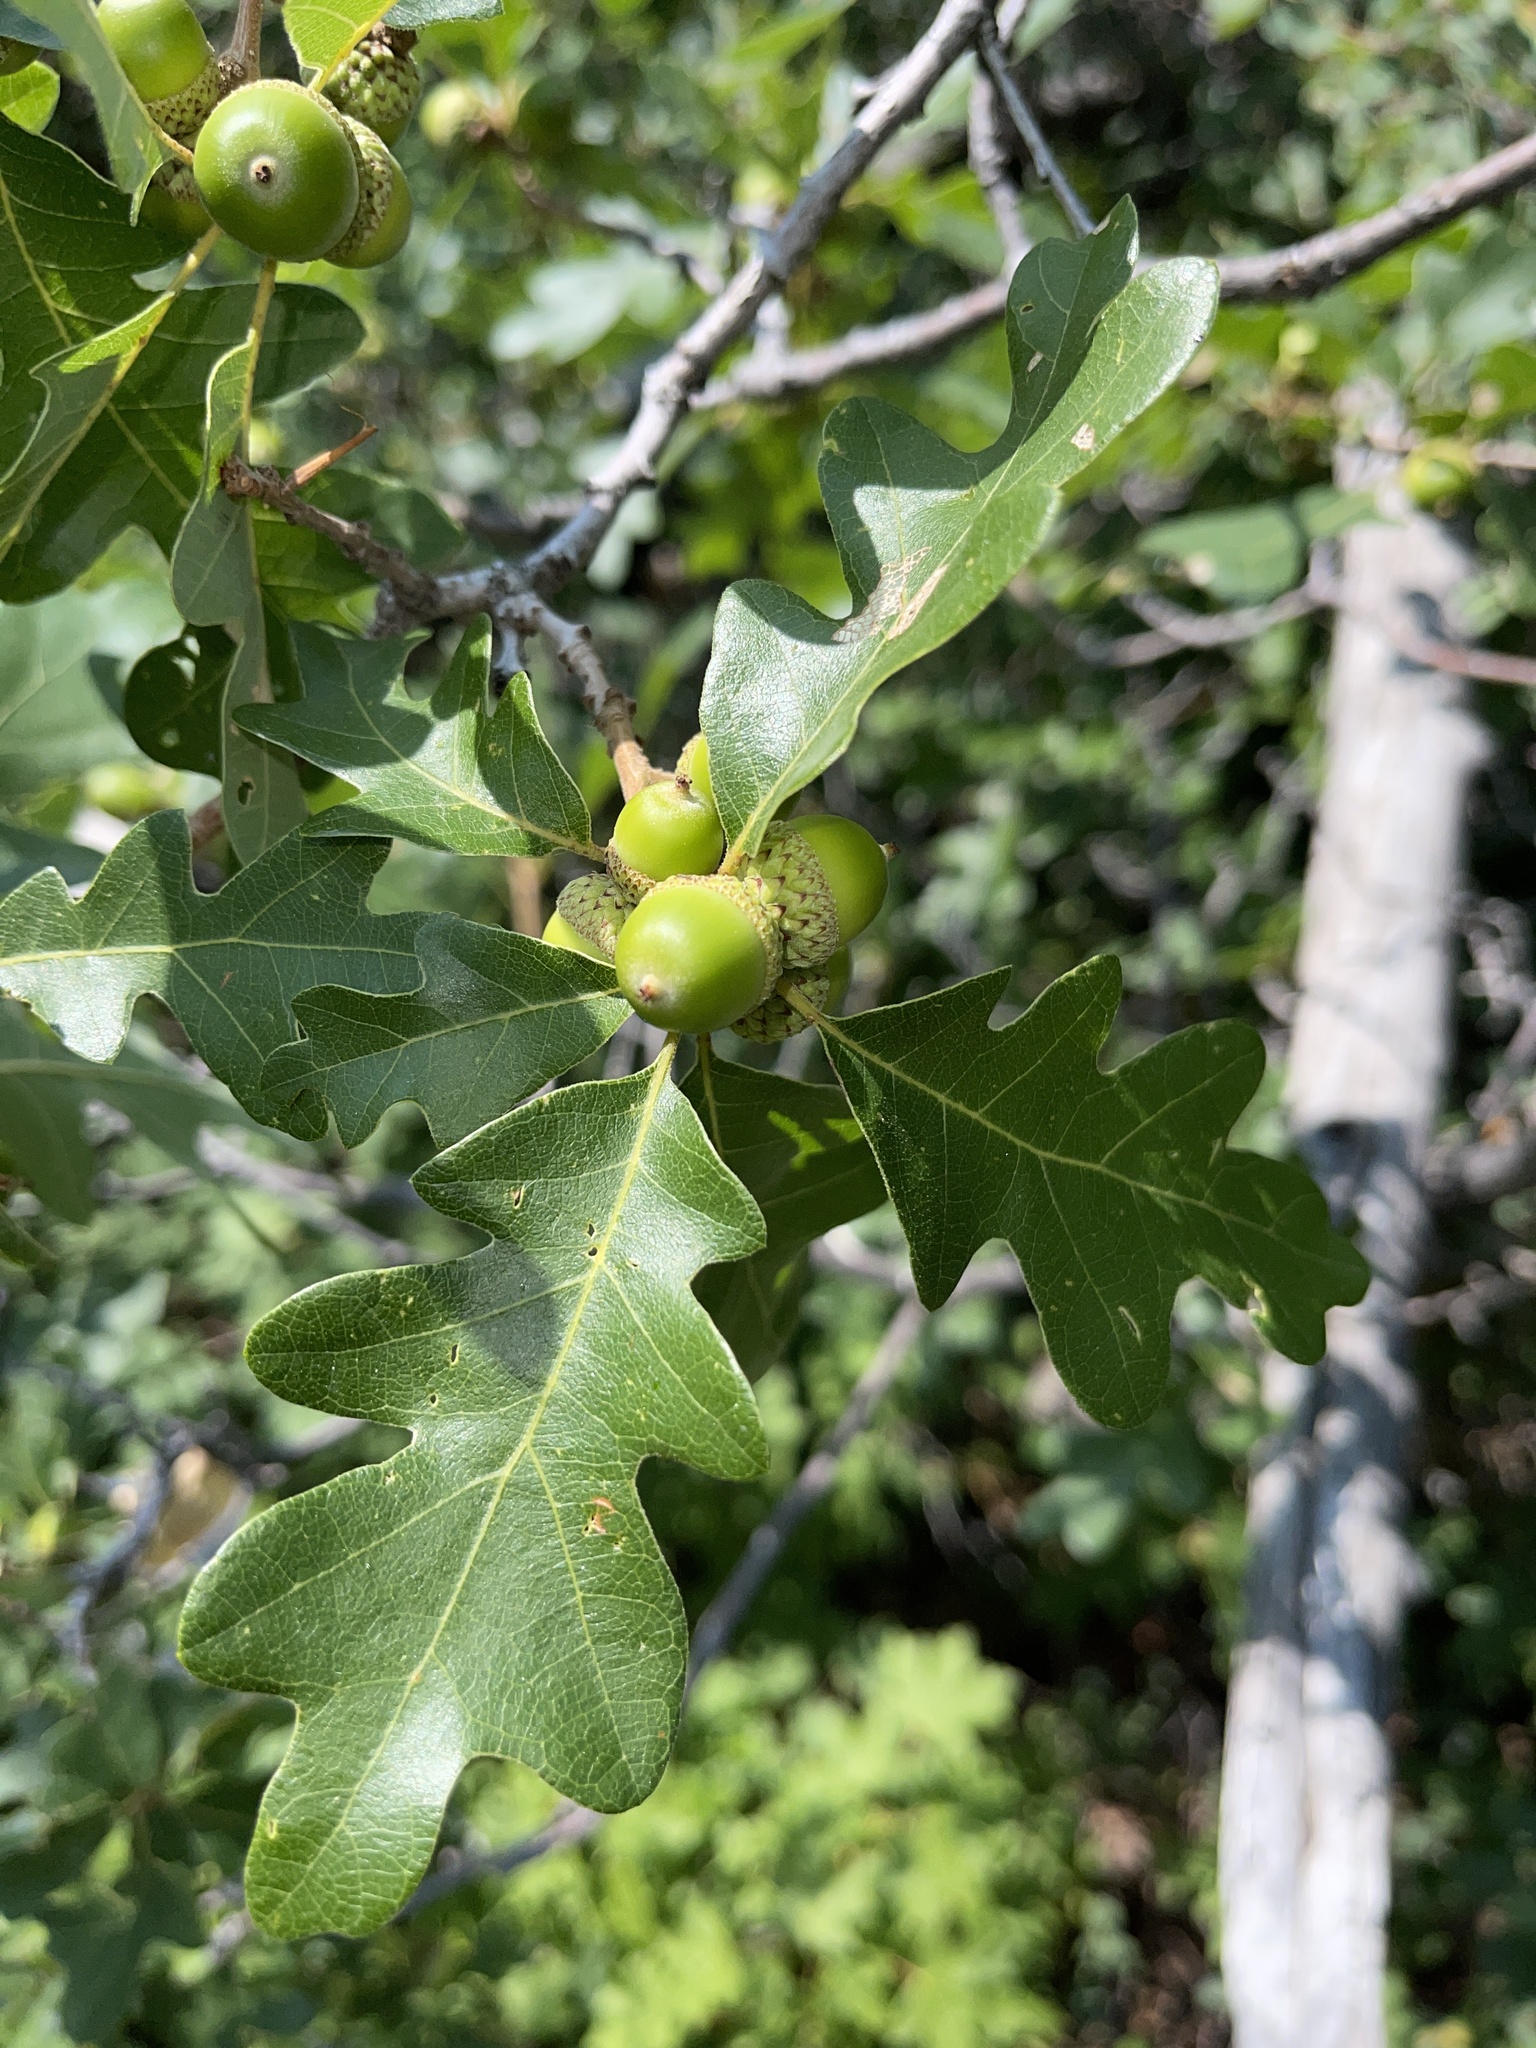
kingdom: Plantae
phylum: Tracheophyta
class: Magnoliopsida
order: Fagales
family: Fagaceae
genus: Quercus
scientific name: Quercus gambelii
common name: Gambel oak
